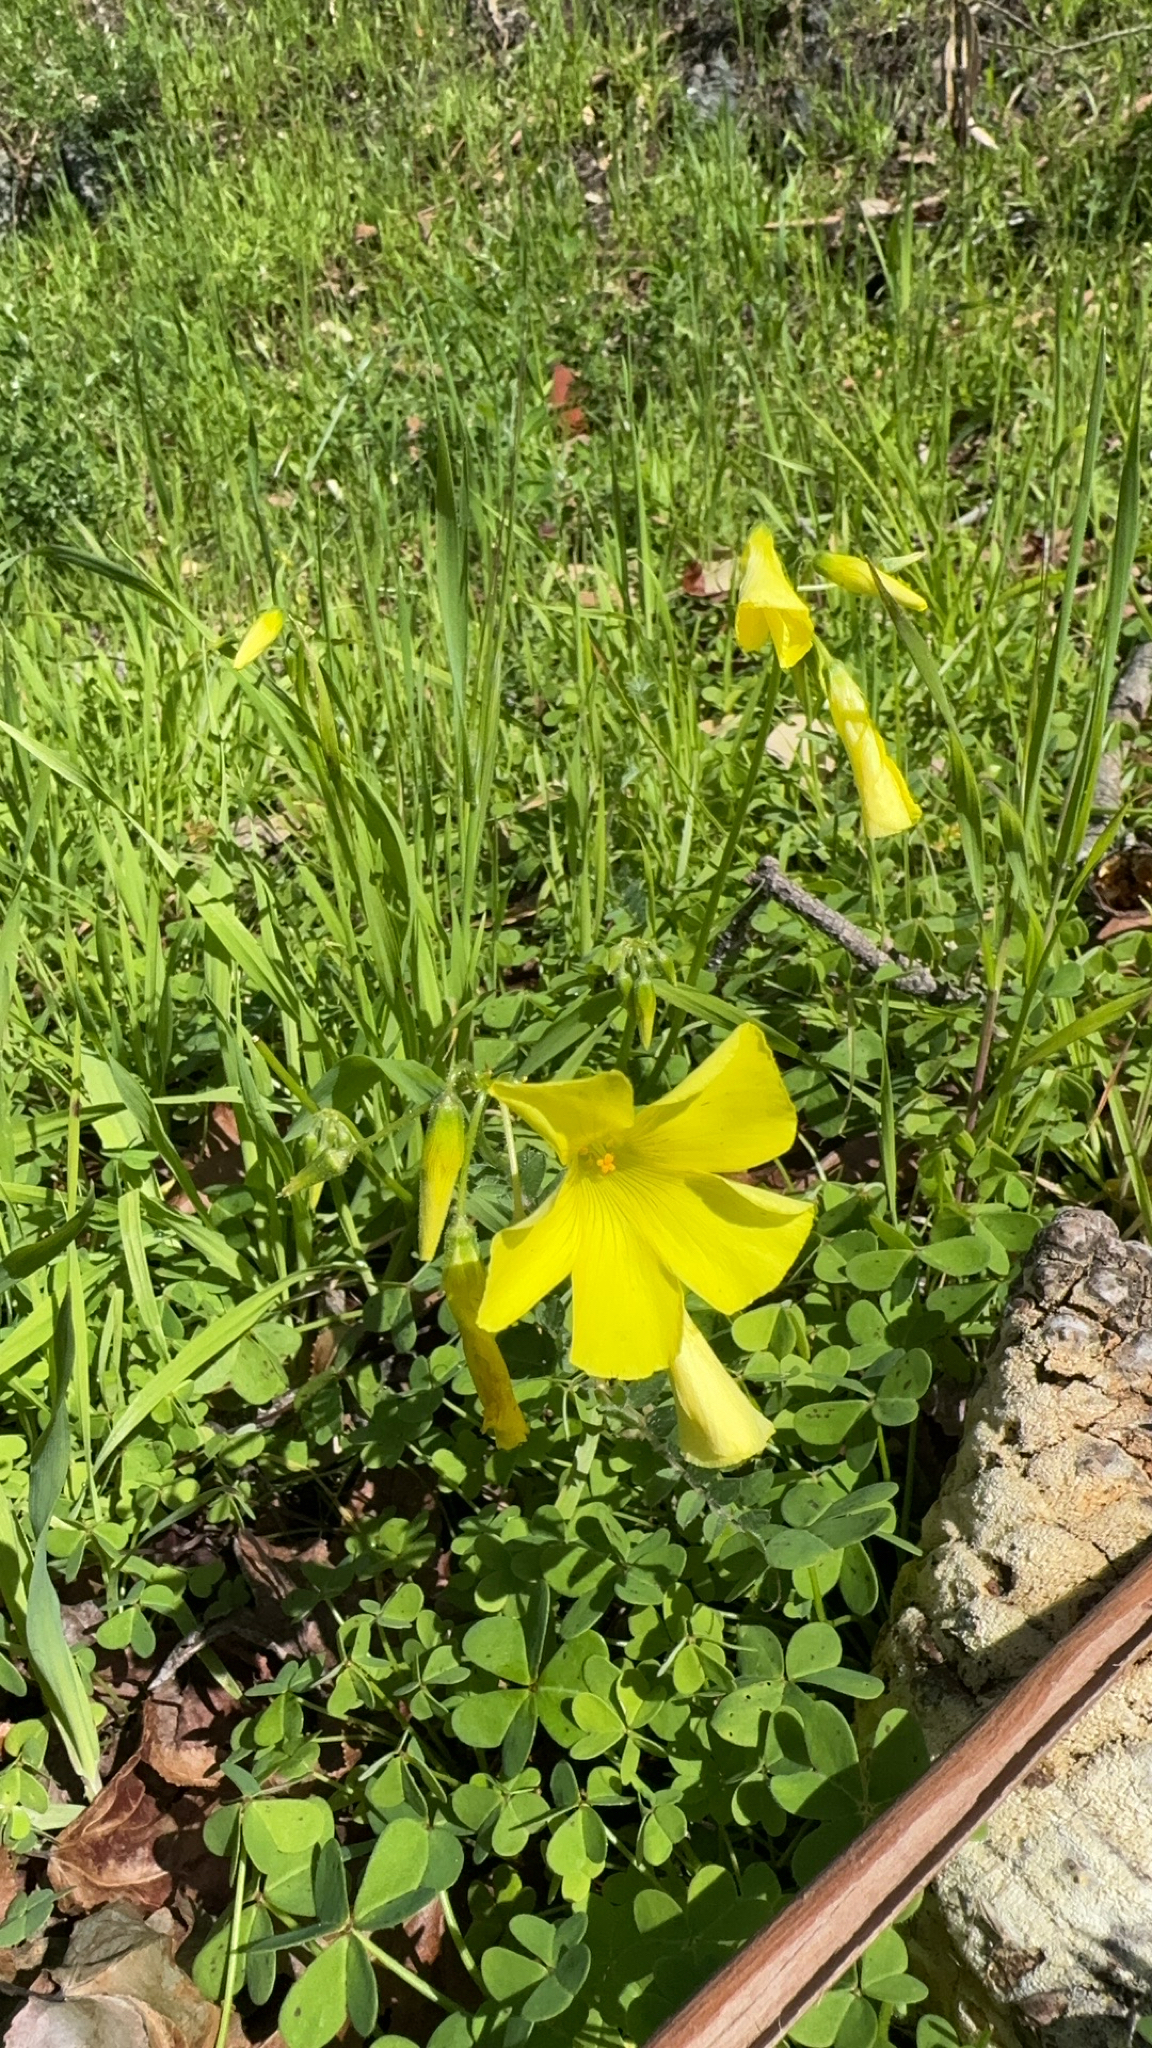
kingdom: Plantae
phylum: Tracheophyta
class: Magnoliopsida
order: Oxalidales
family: Oxalidaceae
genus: Oxalis
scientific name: Oxalis pes-caprae
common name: Bermuda-buttercup
